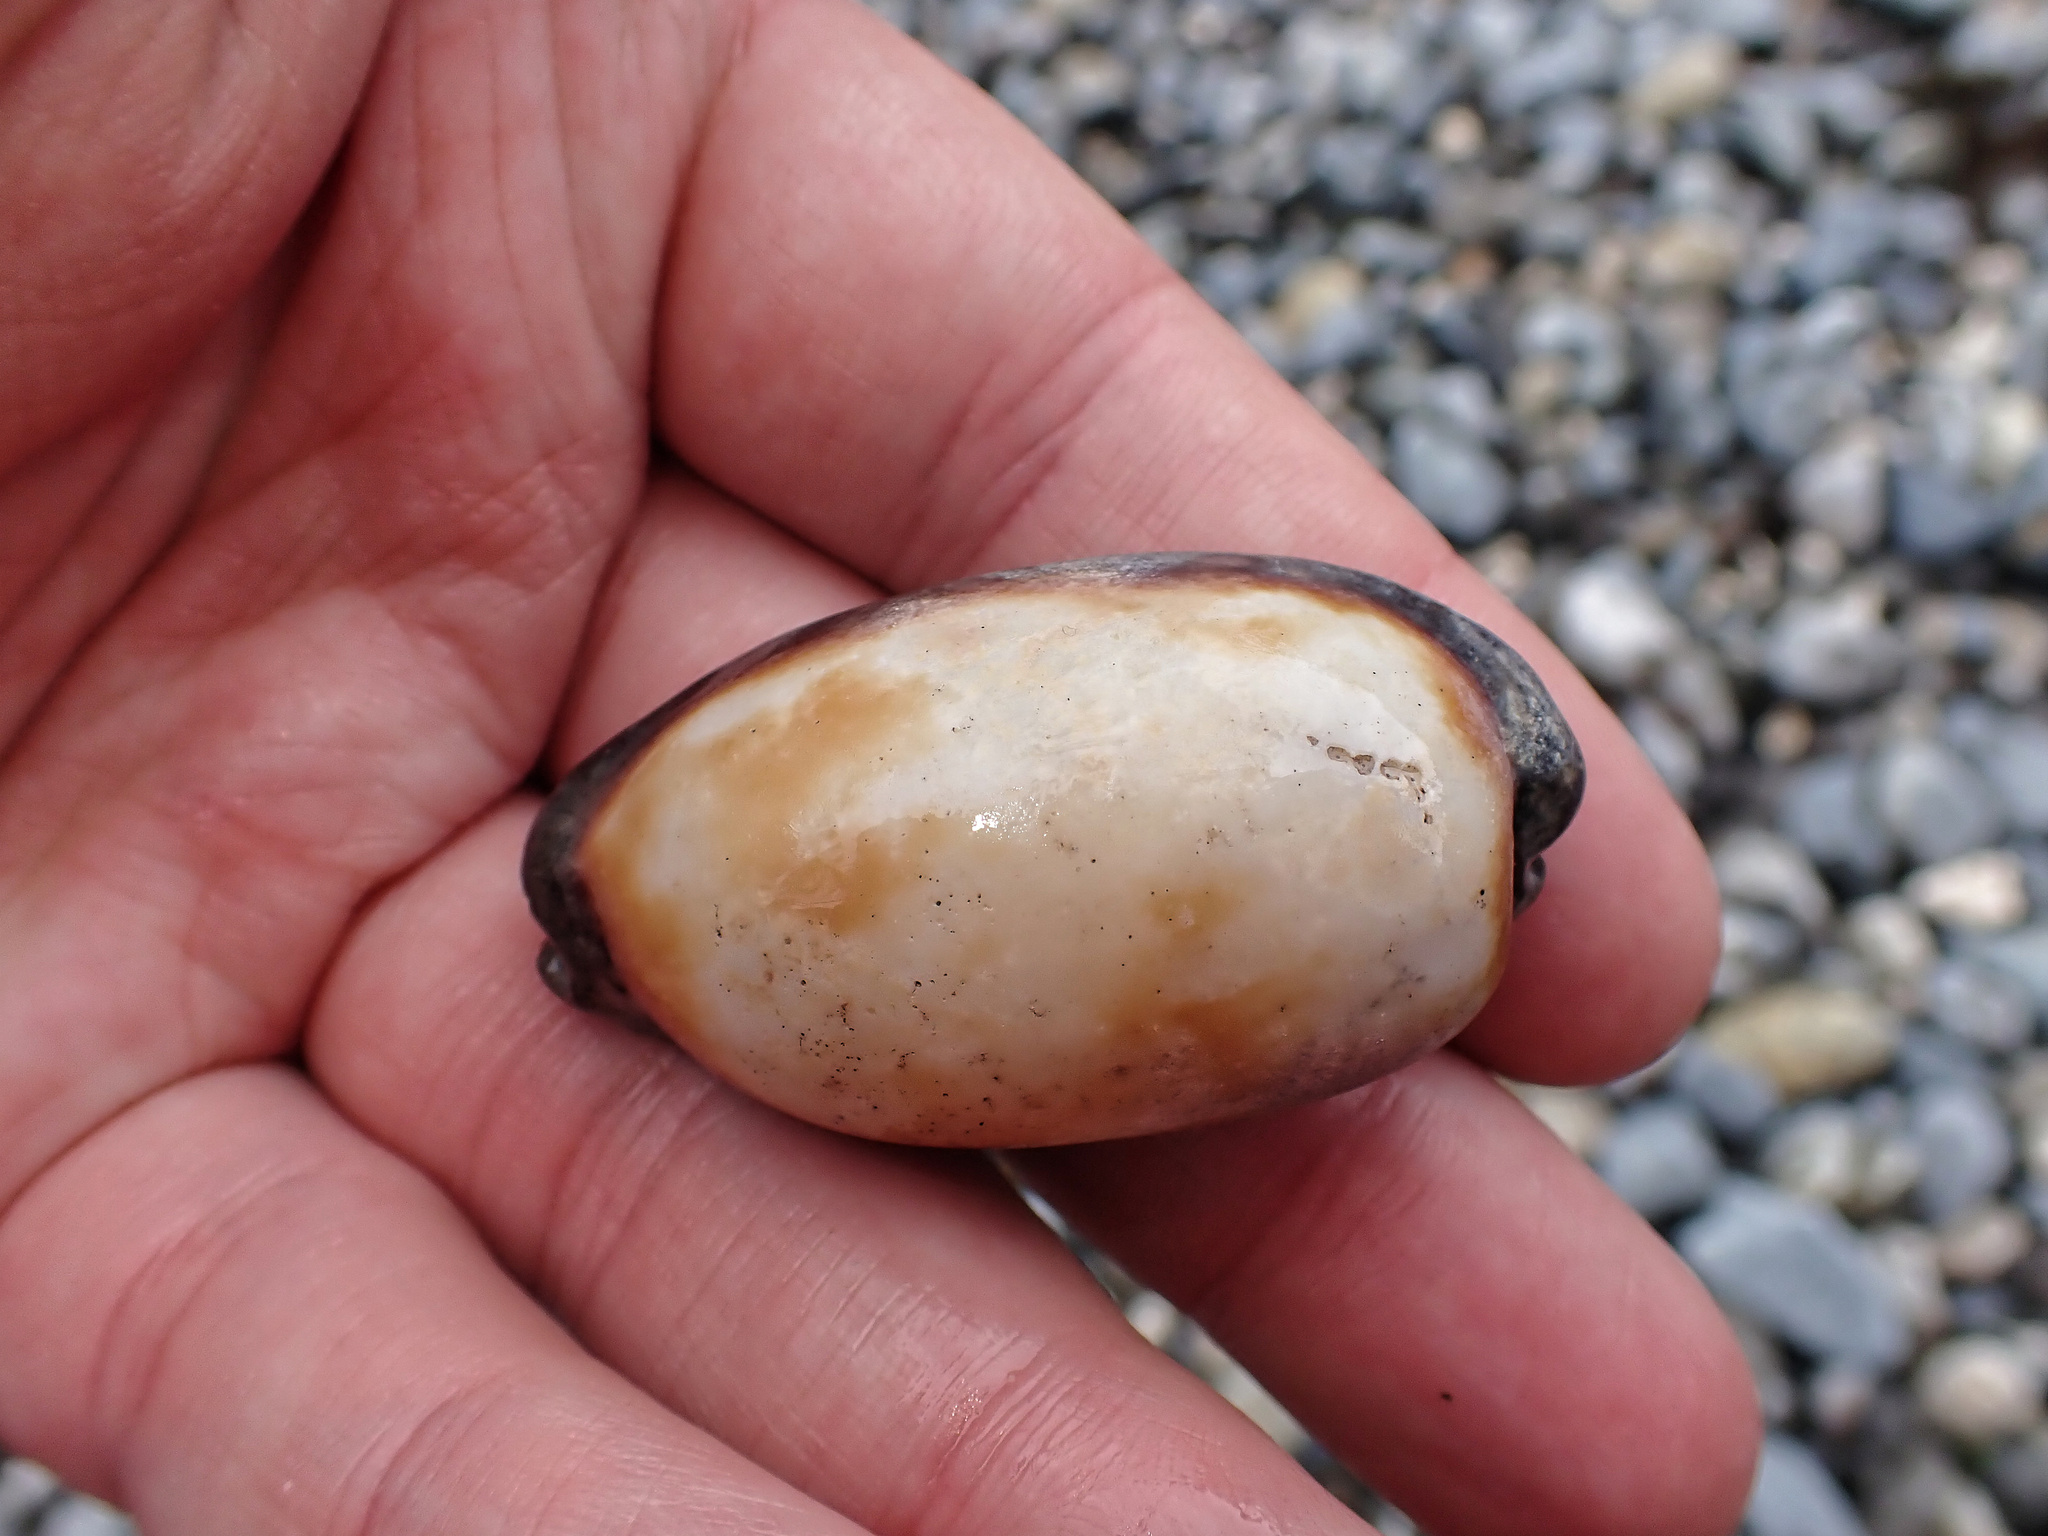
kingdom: Animalia
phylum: Mollusca
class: Gastropoda
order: Littorinimorpha
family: Cypraeidae
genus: Talparia
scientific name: Talparia talpa
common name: Mole cowrie
